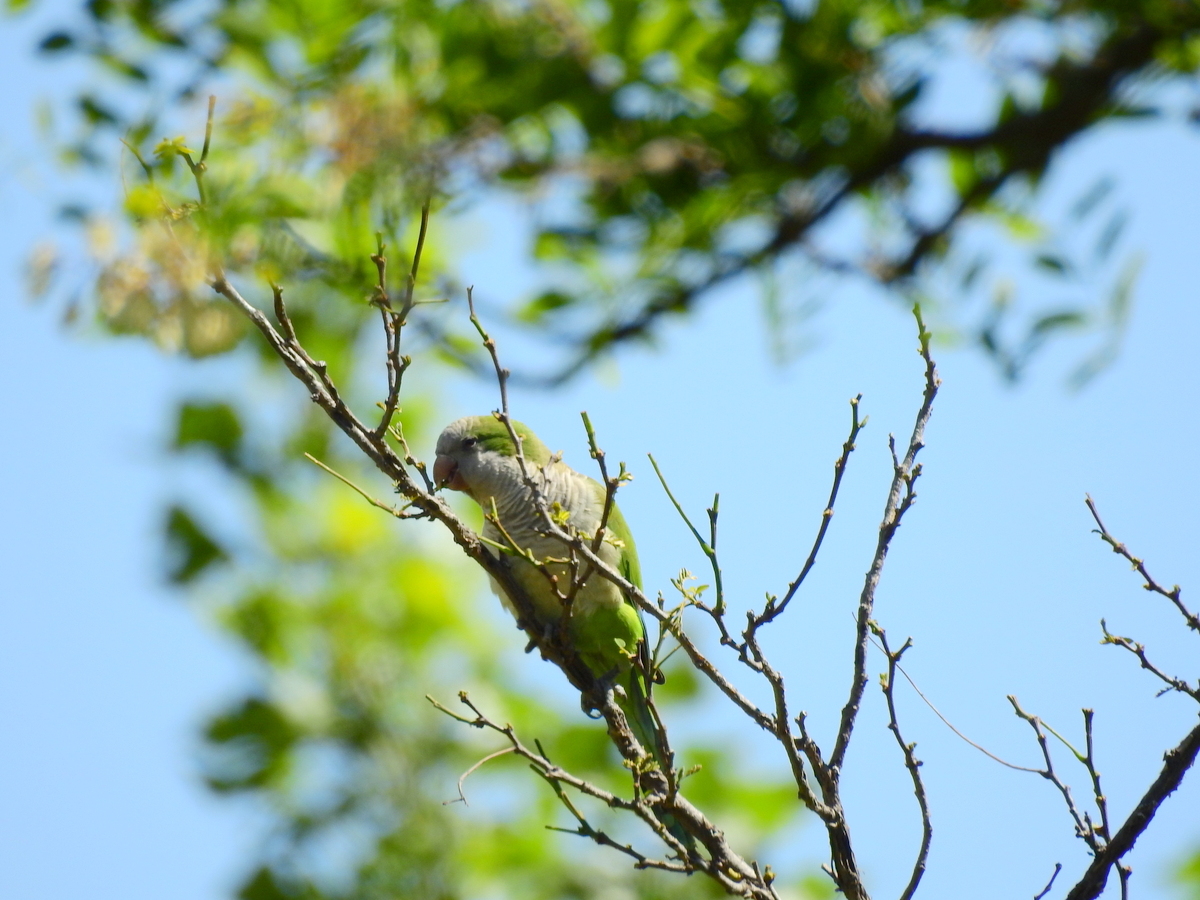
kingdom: Animalia
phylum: Chordata
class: Aves
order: Psittaciformes
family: Psittacidae
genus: Myiopsitta
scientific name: Myiopsitta monachus
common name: Monk parakeet
